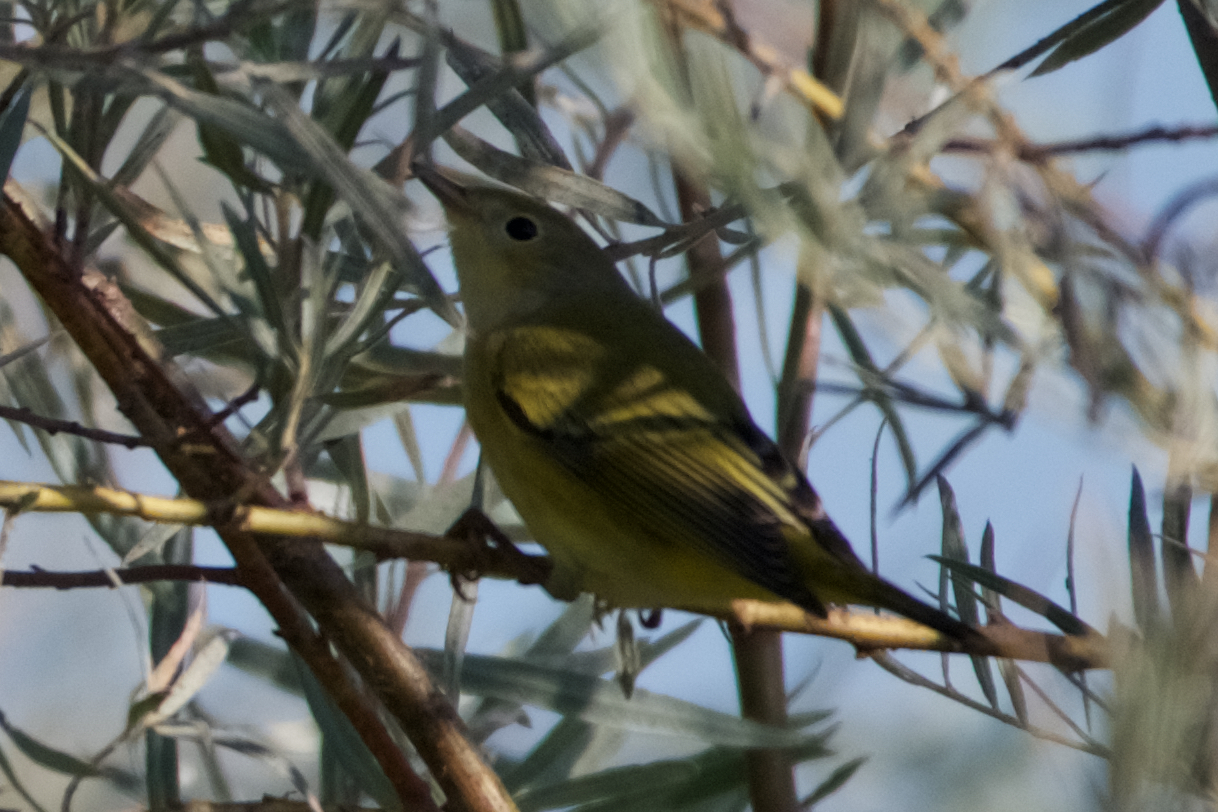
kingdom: Animalia
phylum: Chordata
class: Aves
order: Passeriformes
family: Parulidae
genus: Setophaga
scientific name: Setophaga petechia
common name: Yellow warbler
